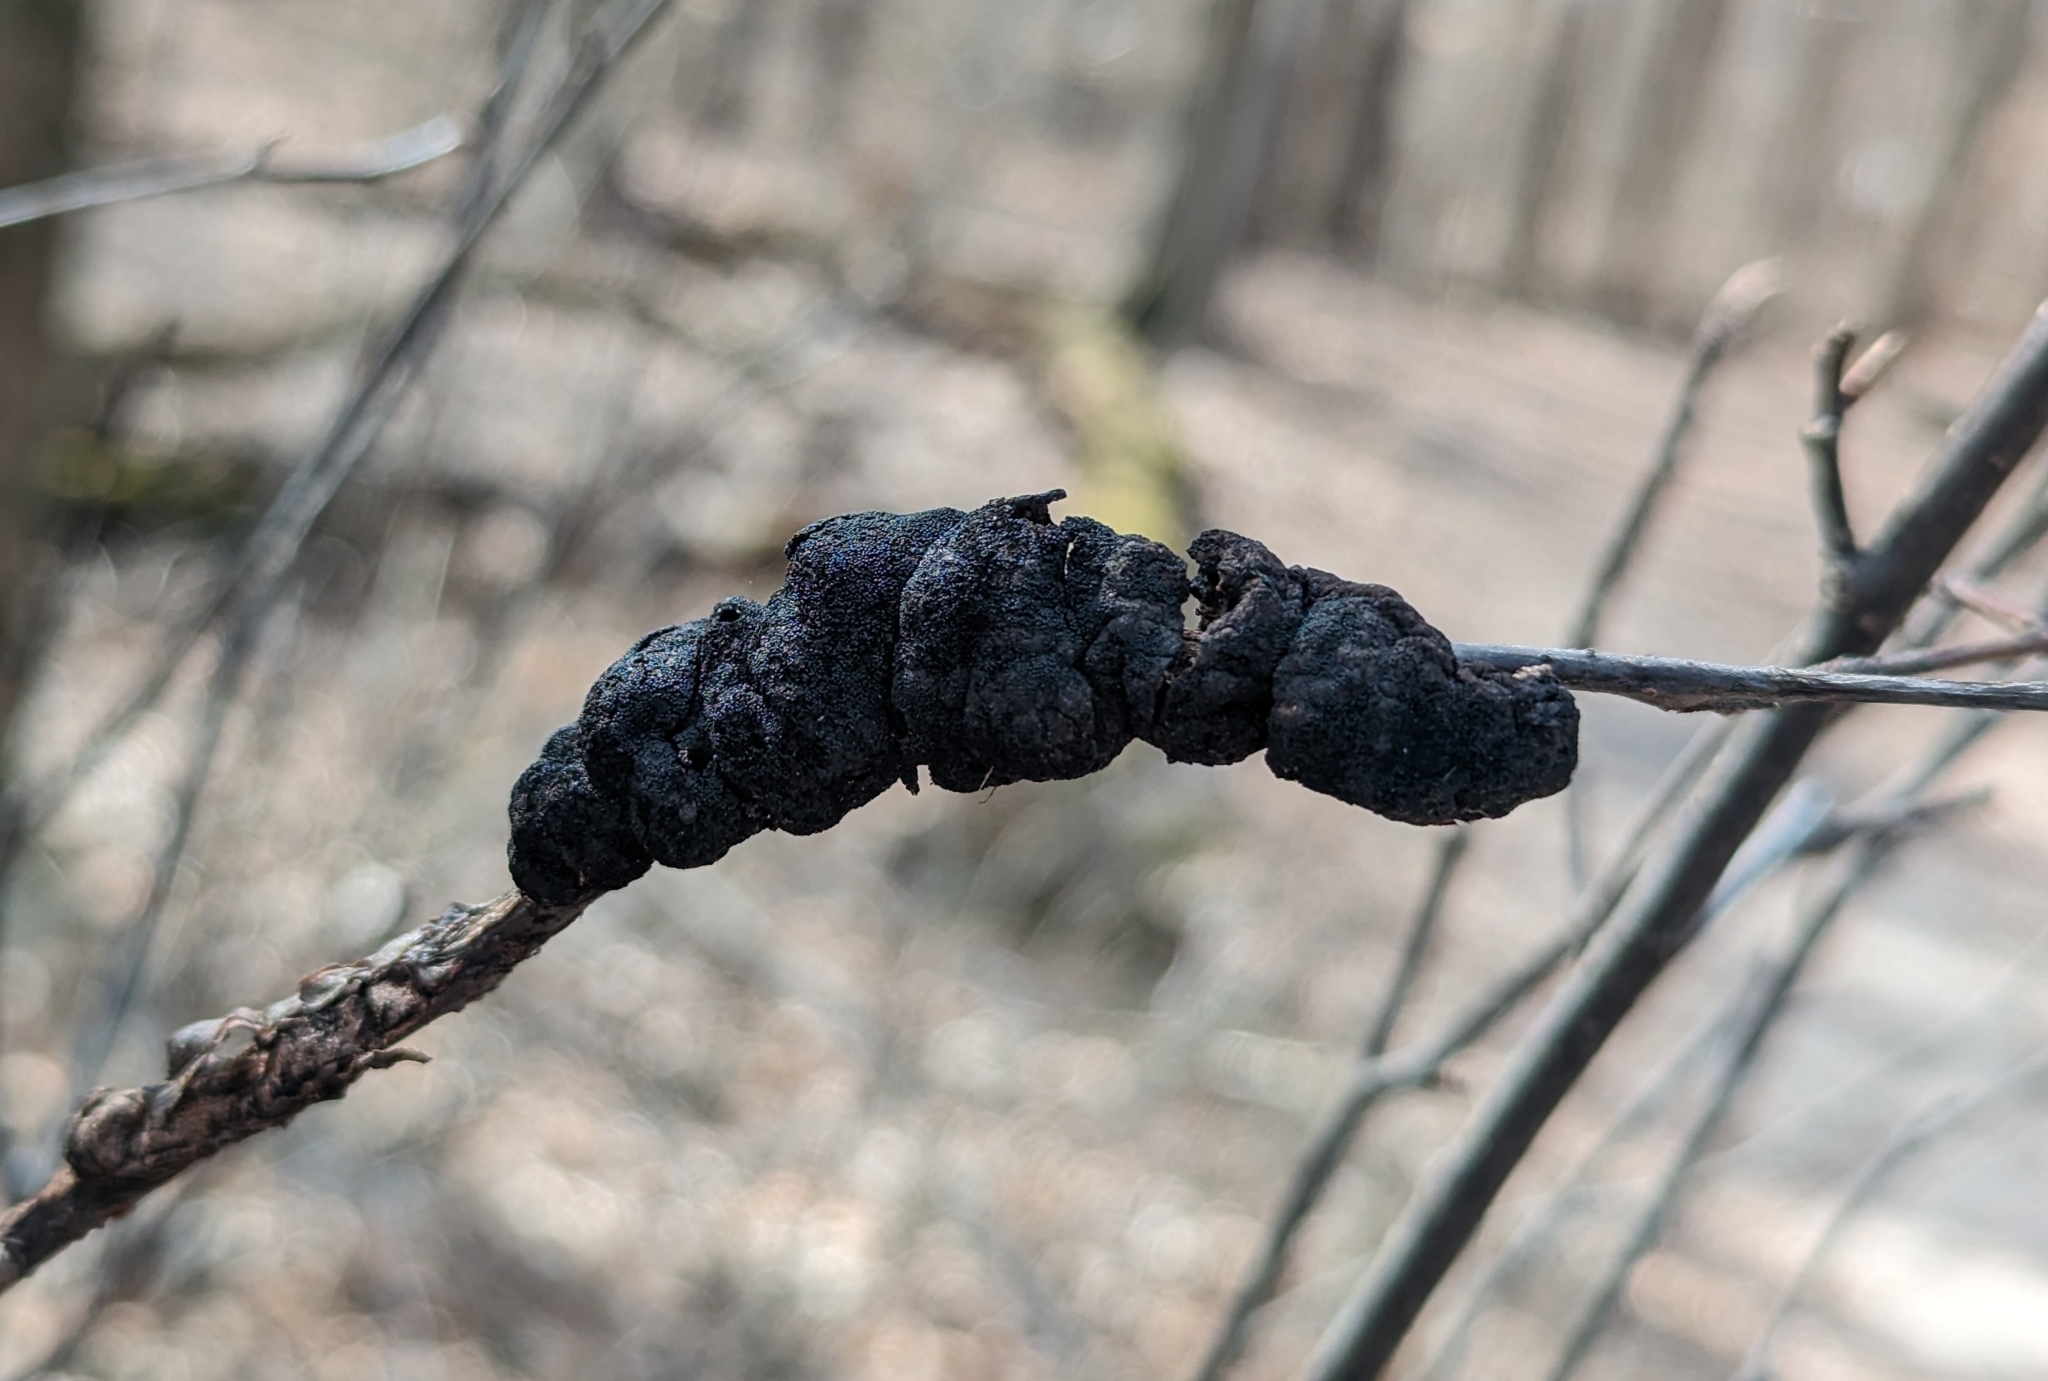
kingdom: Fungi
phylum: Ascomycota
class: Dothideomycetes
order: Venturiales
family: Venturiaceae
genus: Apiosporina
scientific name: Apiosporina morbosa
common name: Black knot
